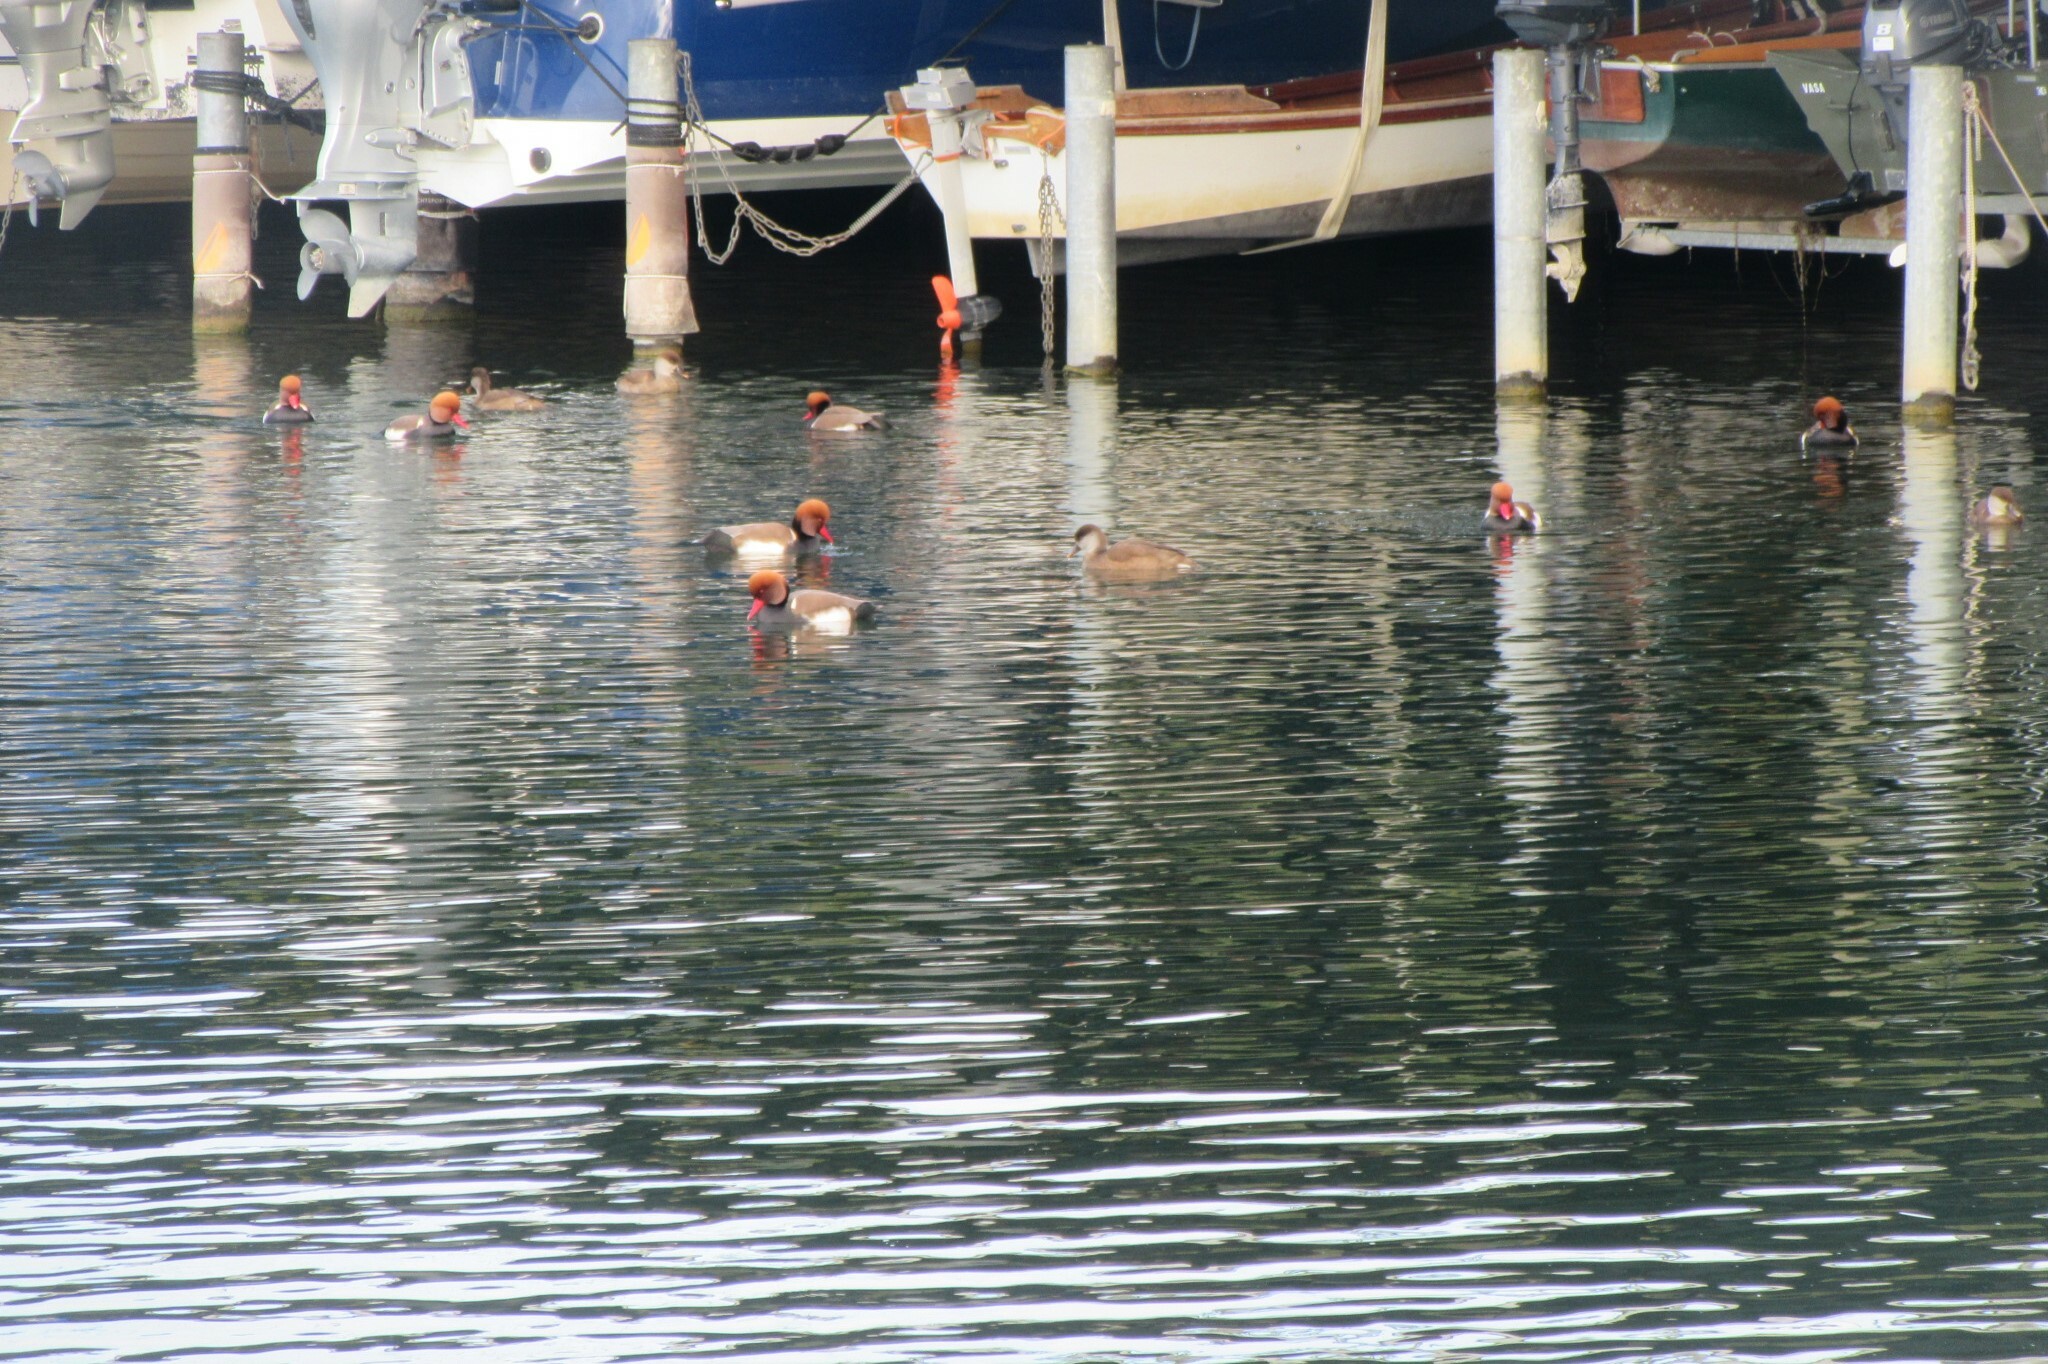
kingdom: Animalia
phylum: Chordata
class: Aves
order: Anseriformes
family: Anatidae
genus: Netta
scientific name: Netta rufina
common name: Red-crested pochard
